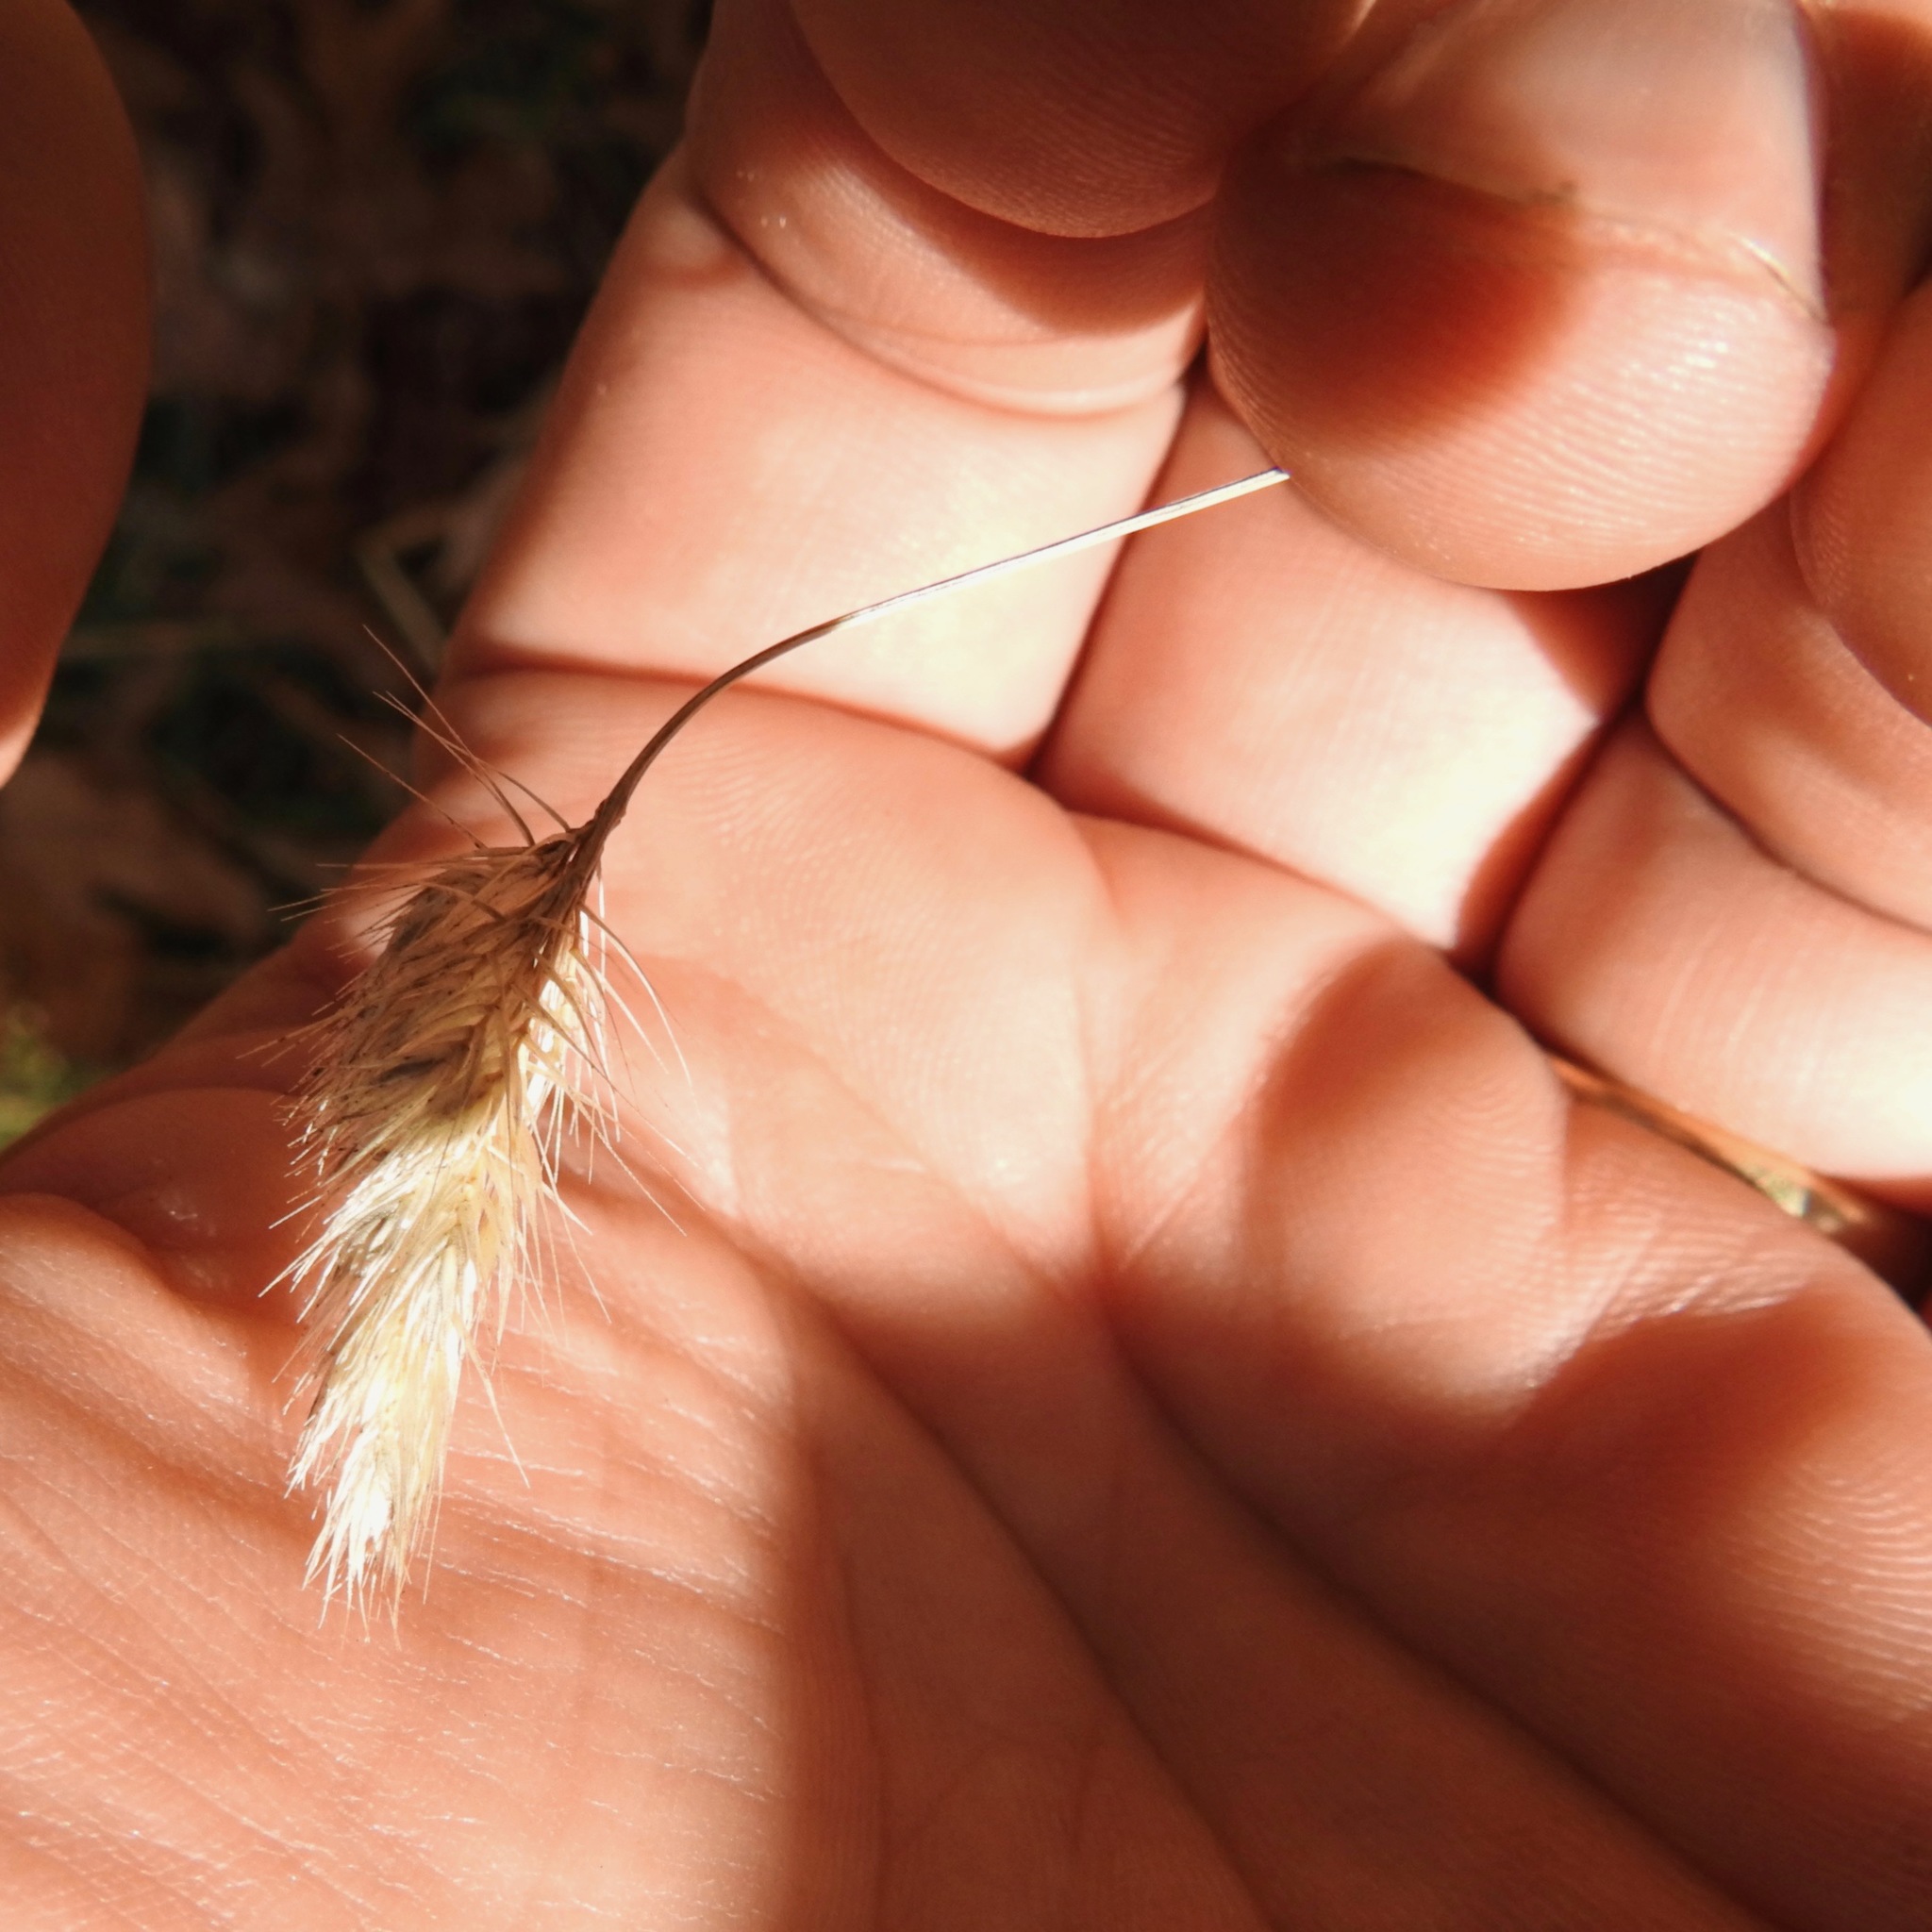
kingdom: Plantae
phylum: Tracheophyta
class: Liliopsida
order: Poales
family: Poaceae
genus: Cynosurus
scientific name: Cynosurus echinatus
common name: Rough dog's-tail
